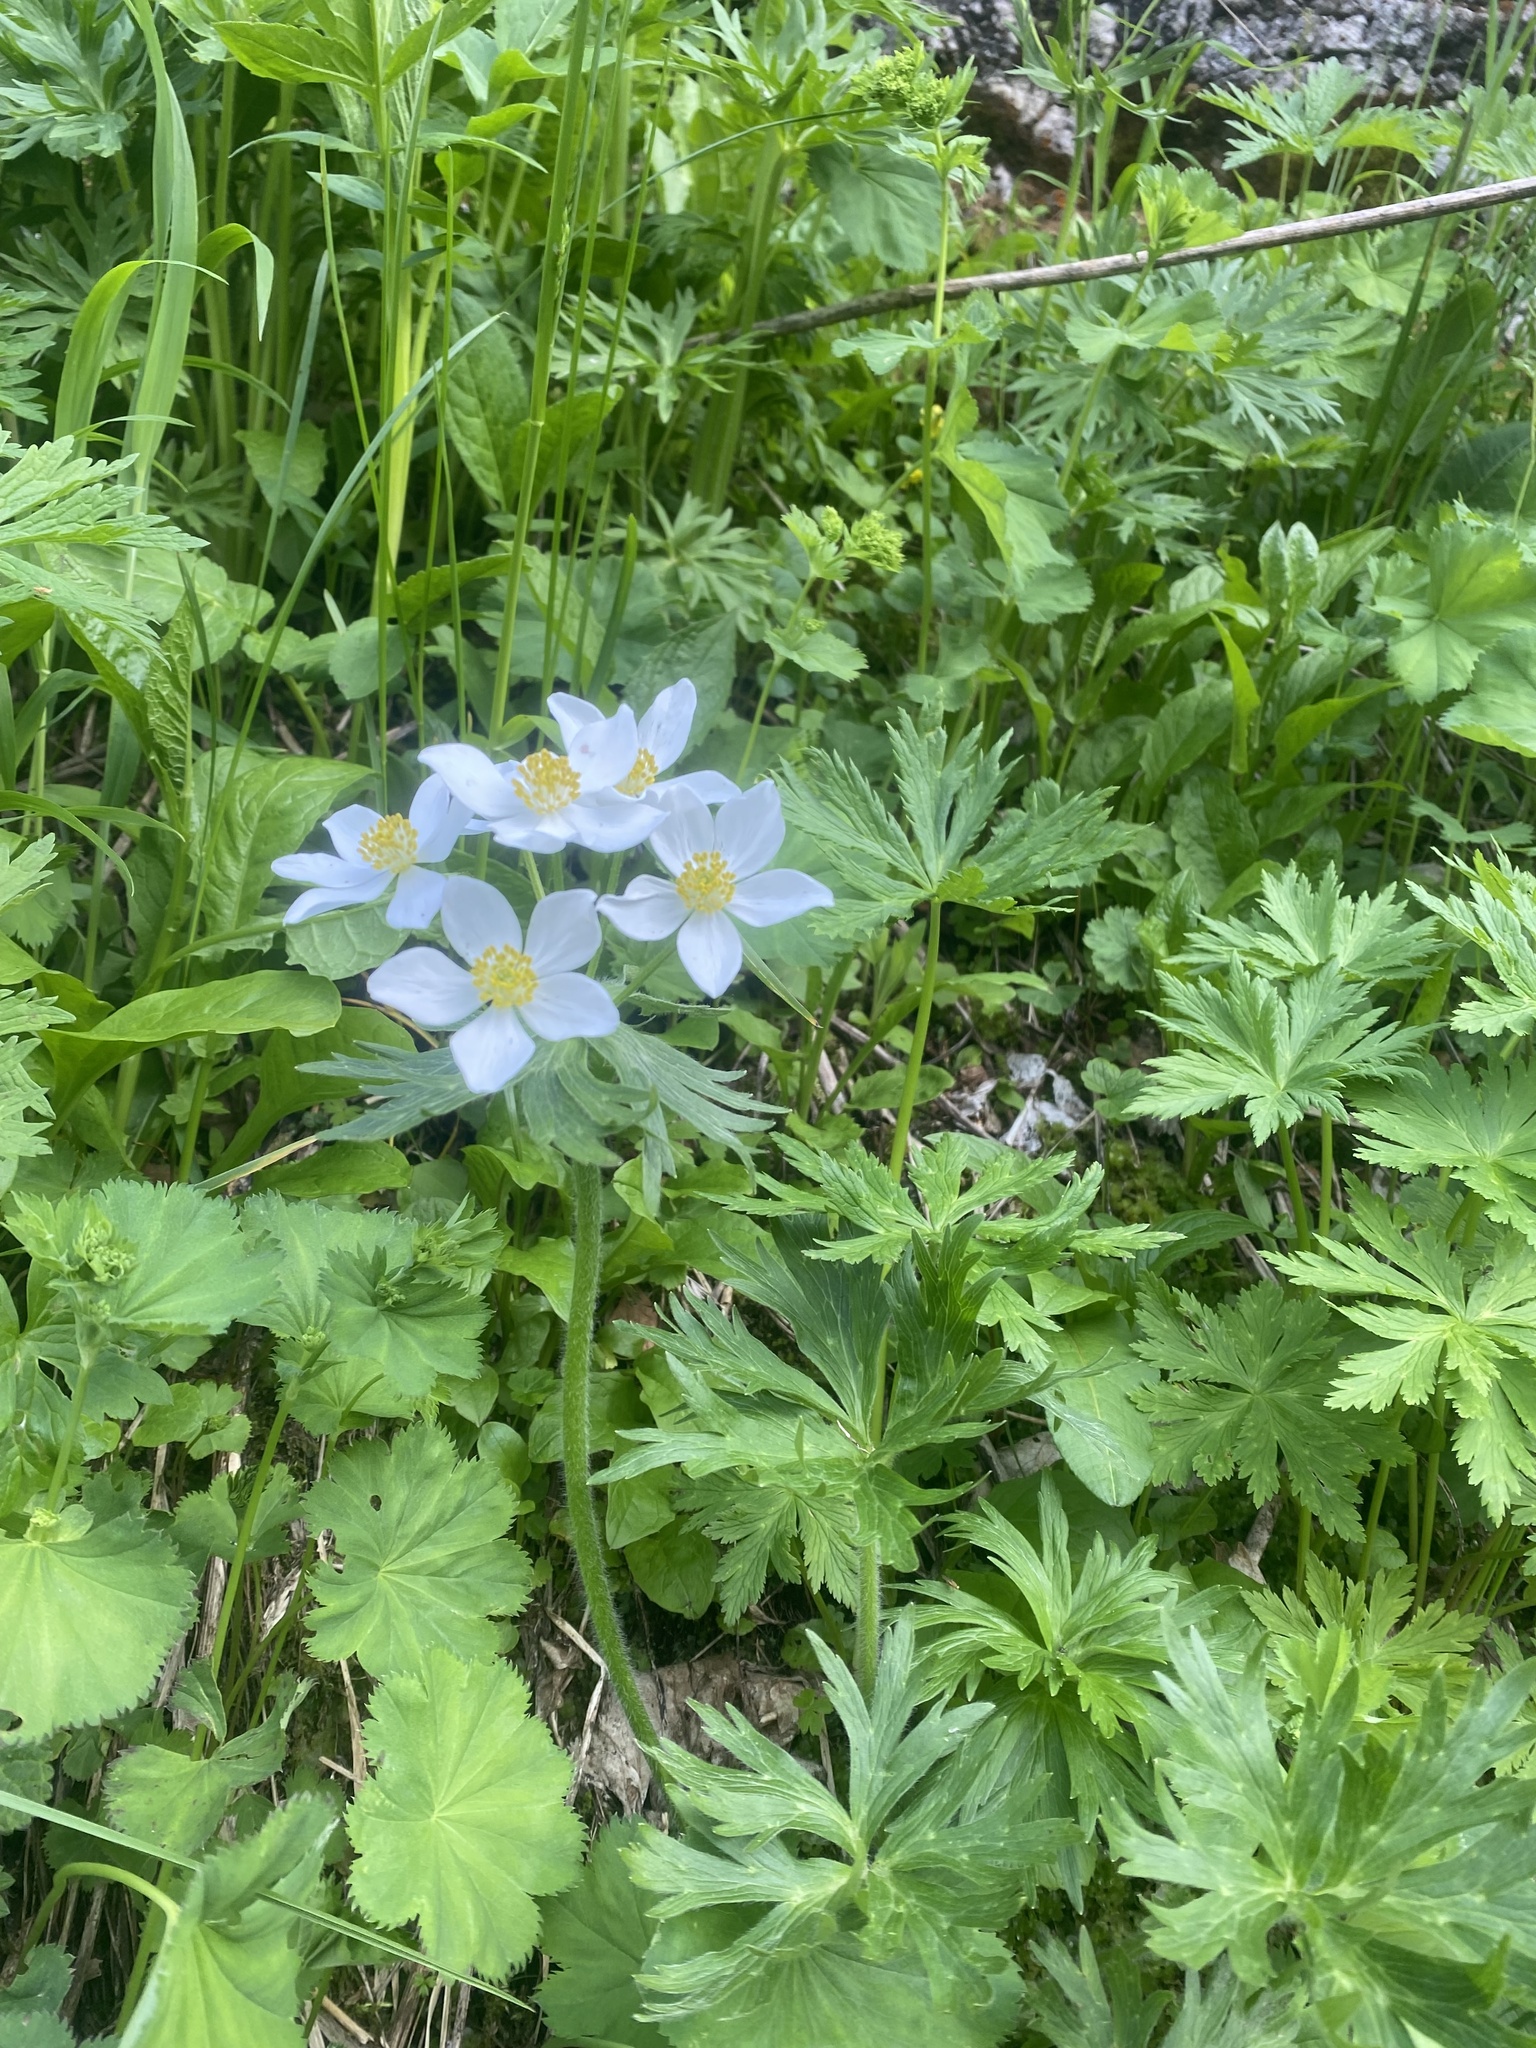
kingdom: Plantae
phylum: Tracheophyta
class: Magnoliopsida
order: Ranunculales
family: Ranunculaceae
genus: Anemonastrum
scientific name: Anemonastrum narcissiflorum
